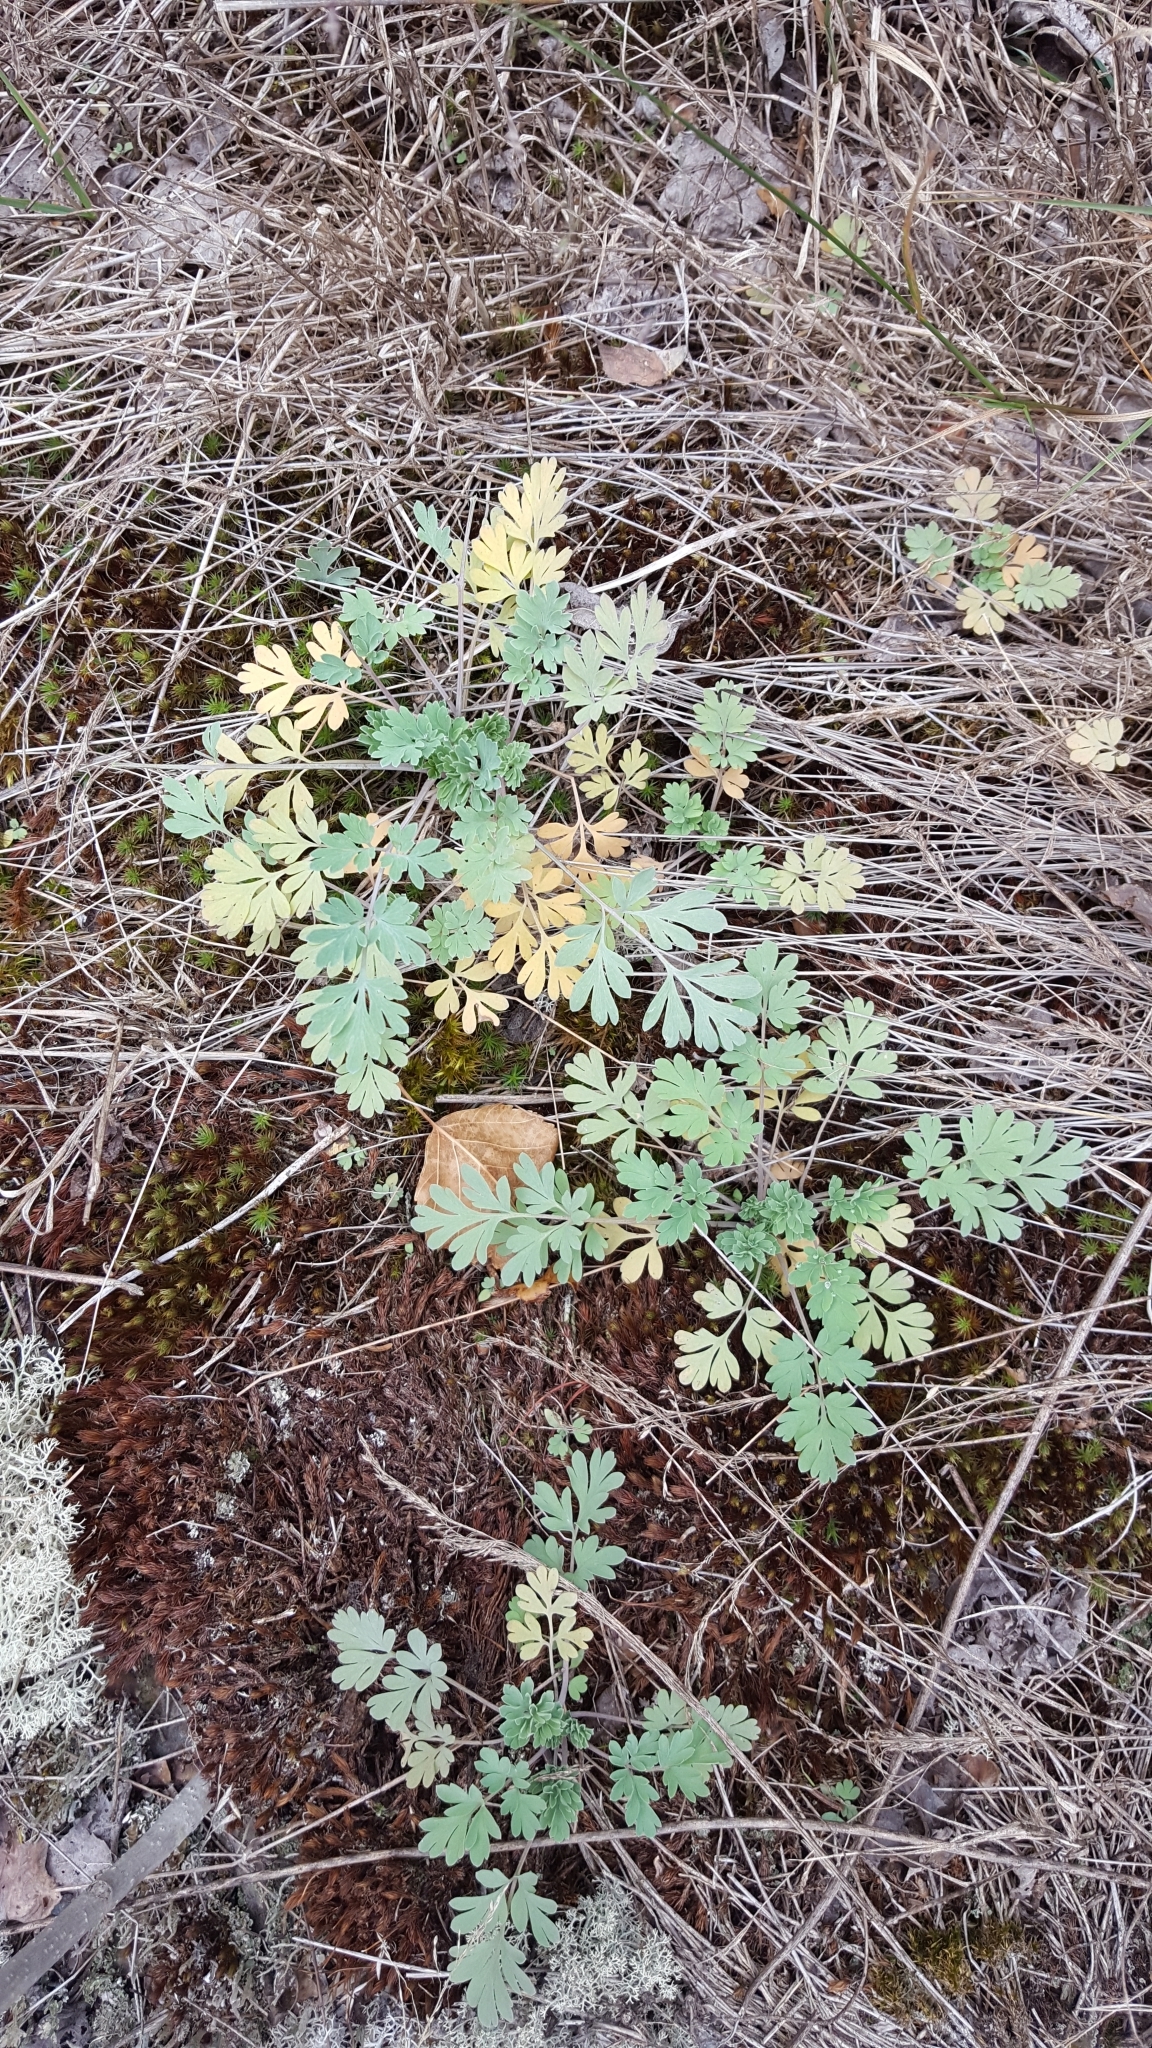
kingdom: Plantae
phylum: Tracheophyta
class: Magnoliopsida
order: Ranunculales
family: Papaveraceae
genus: Capnoides
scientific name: Capnoides sempervirens
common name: Rock harlequin
